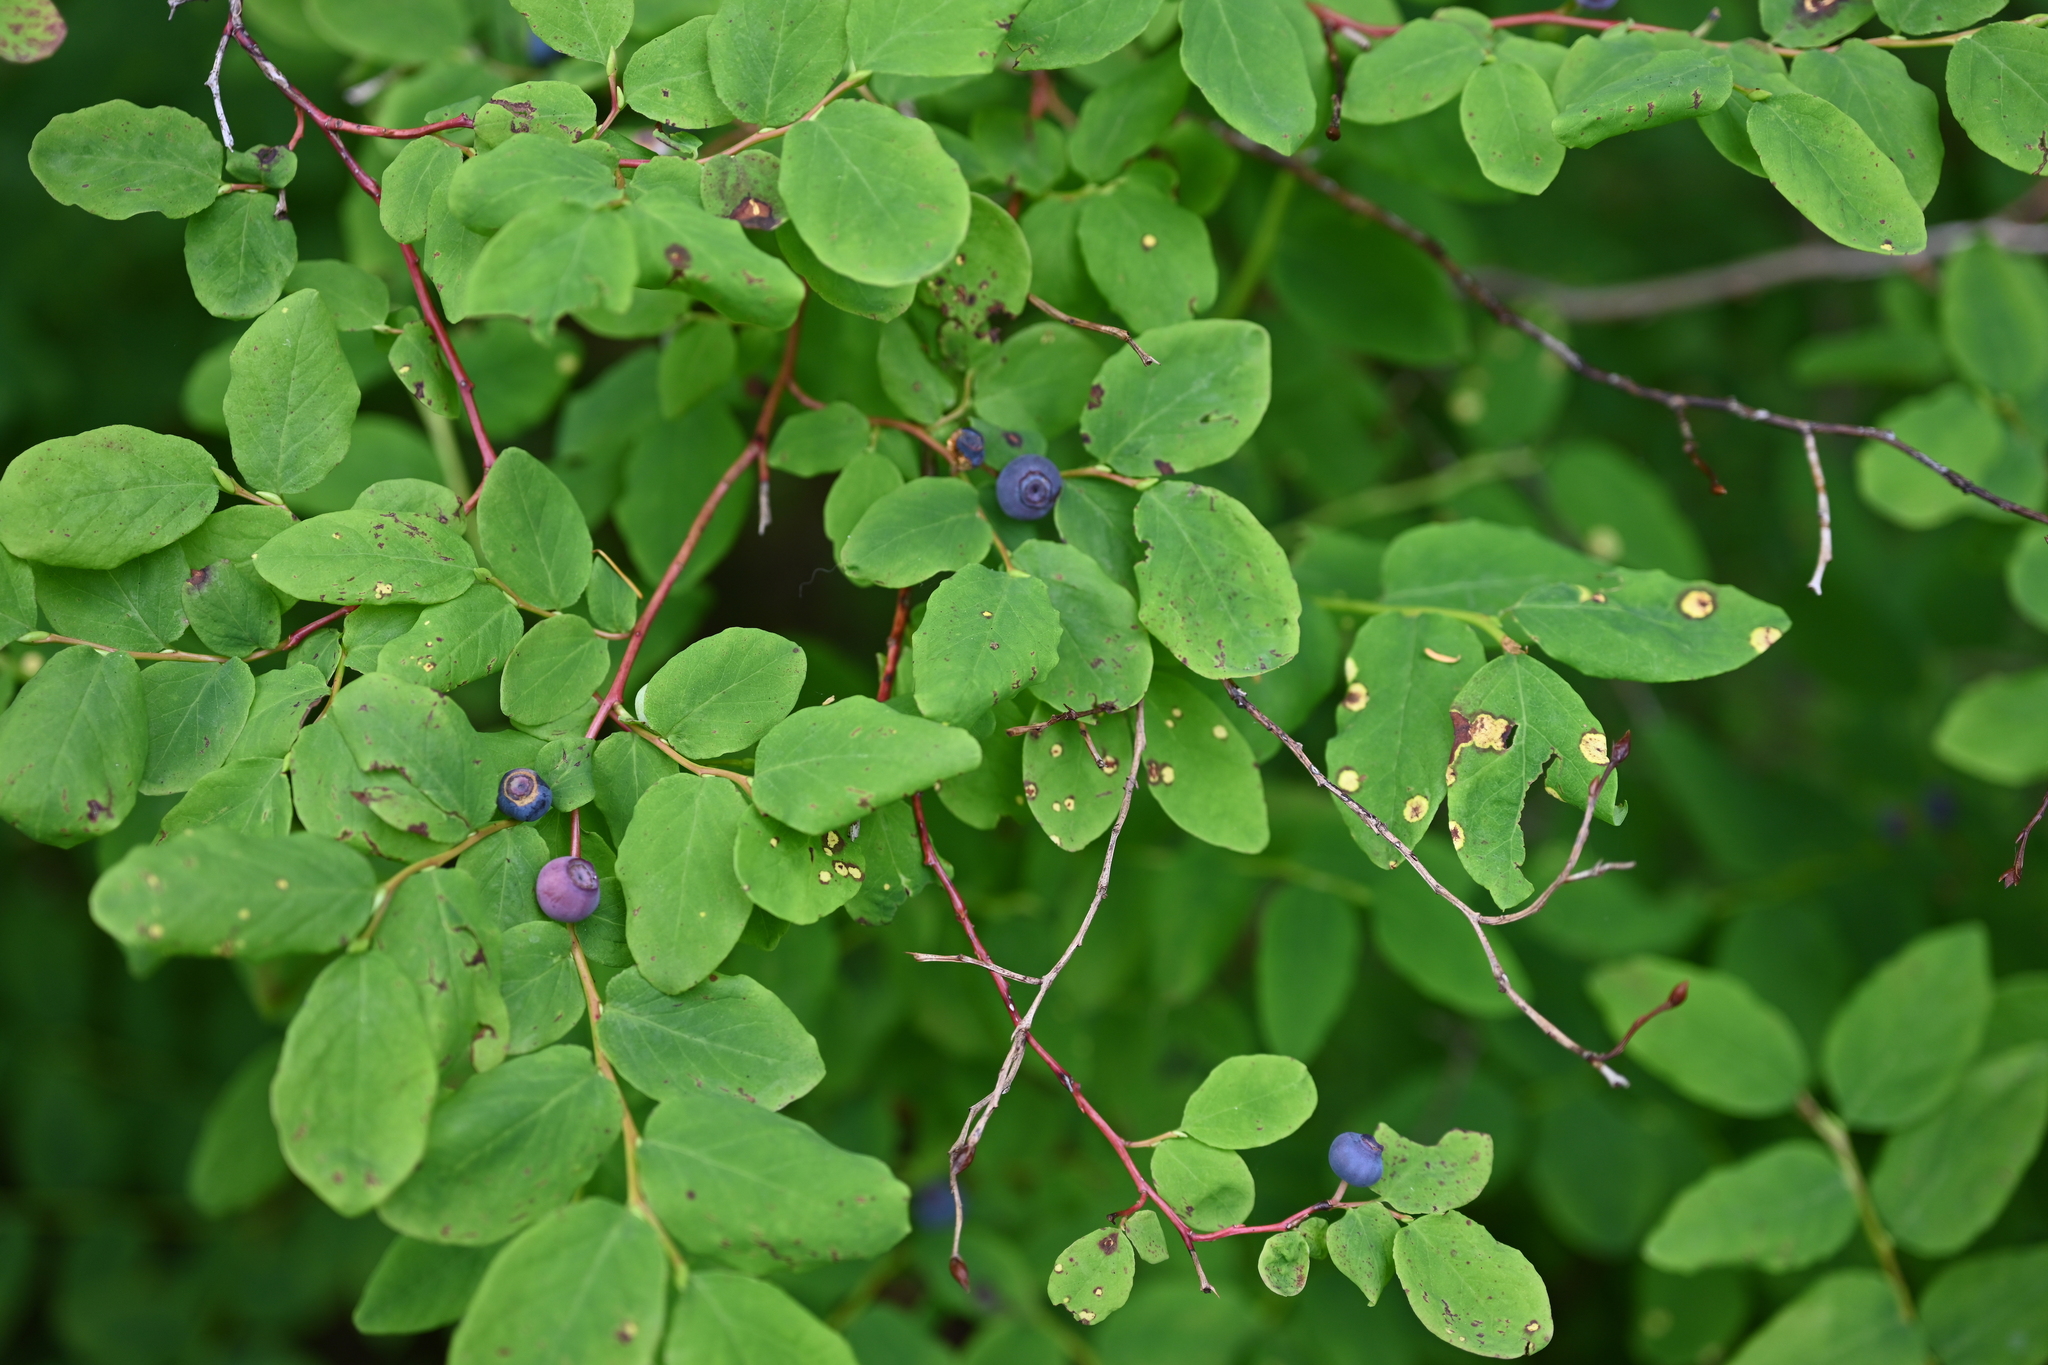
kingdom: Plantae
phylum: Tracheophyta
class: Magnoliopsida
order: Ericales
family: Ericaceae
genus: Vaccinium
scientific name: Vaccinium ovalifolium
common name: Early blueberry
